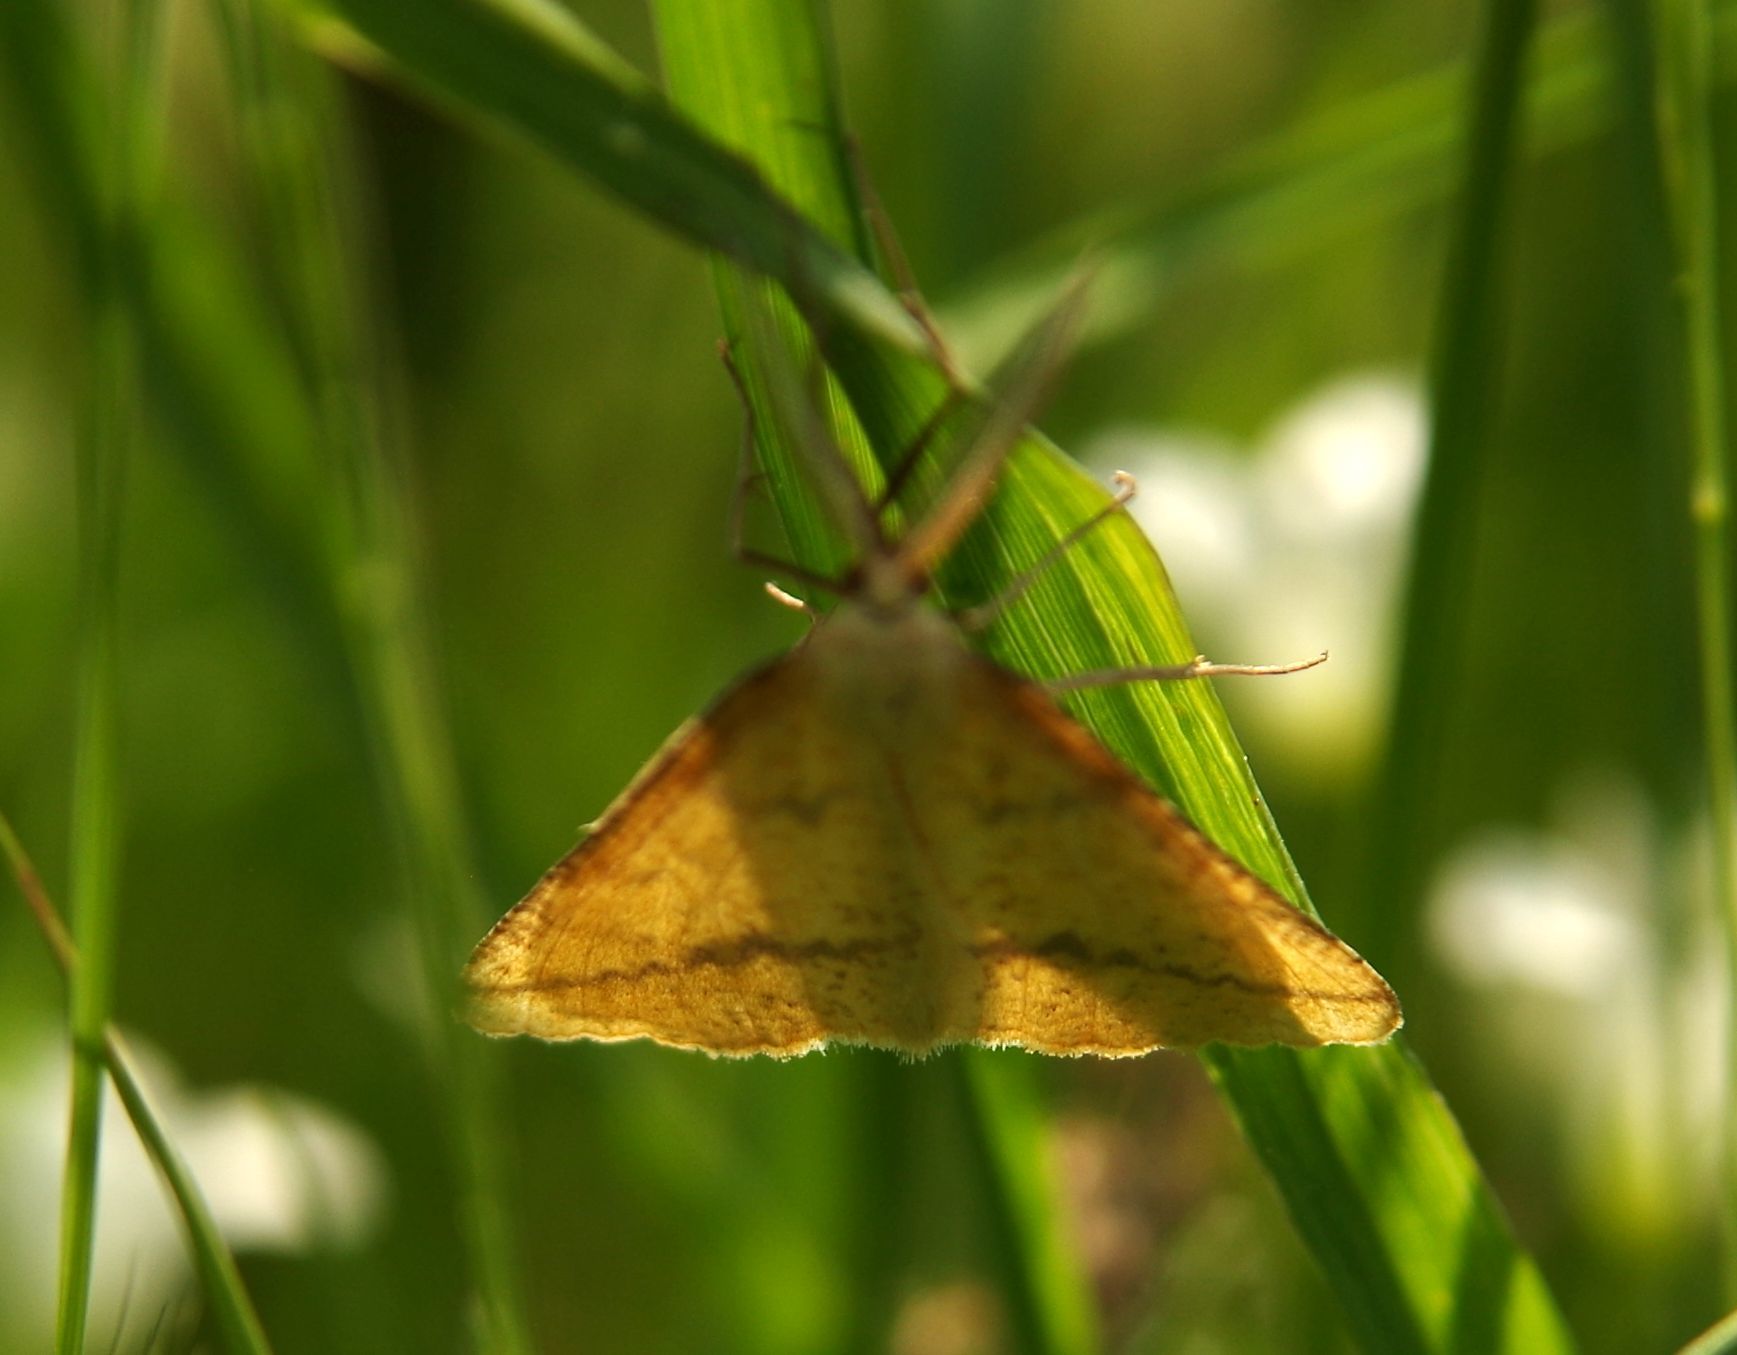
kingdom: Animalia
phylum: Arthropoda
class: Insecta
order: Lepidoptera
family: Geometridae
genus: Aspitates
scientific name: Aspitates ochrearia
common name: Yellow belle
